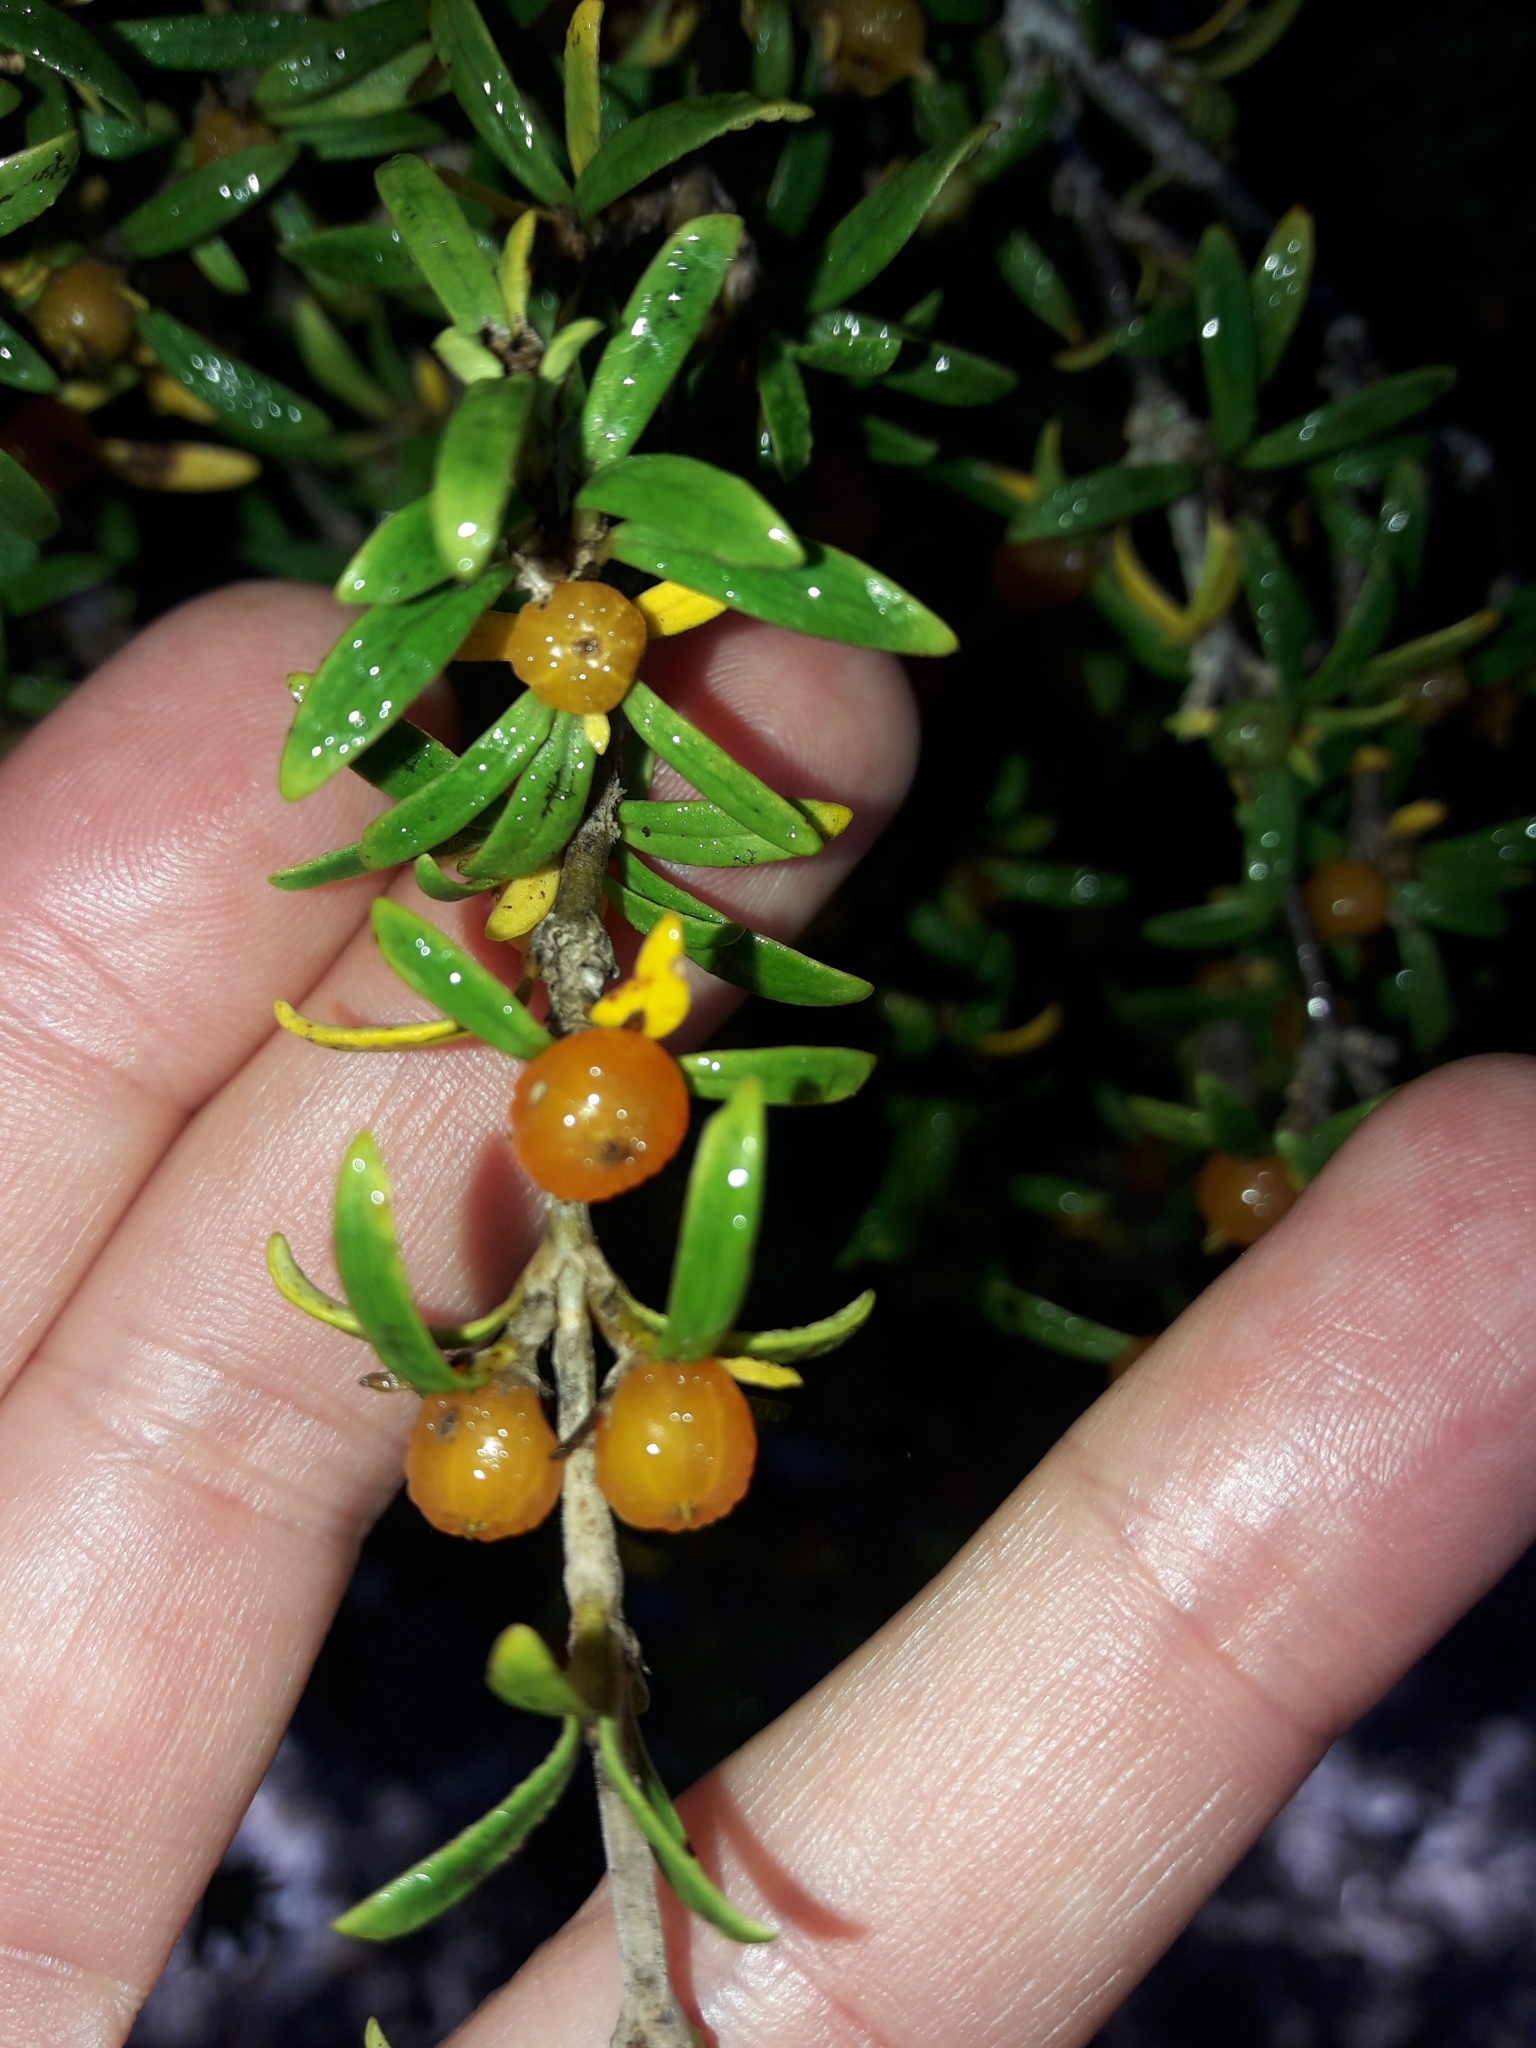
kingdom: Plantae
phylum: Tracheophyta
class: Magnoliopsida
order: Gentianales
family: Rubiaceae
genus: Coprosma
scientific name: Coprosma pseudocuneata
